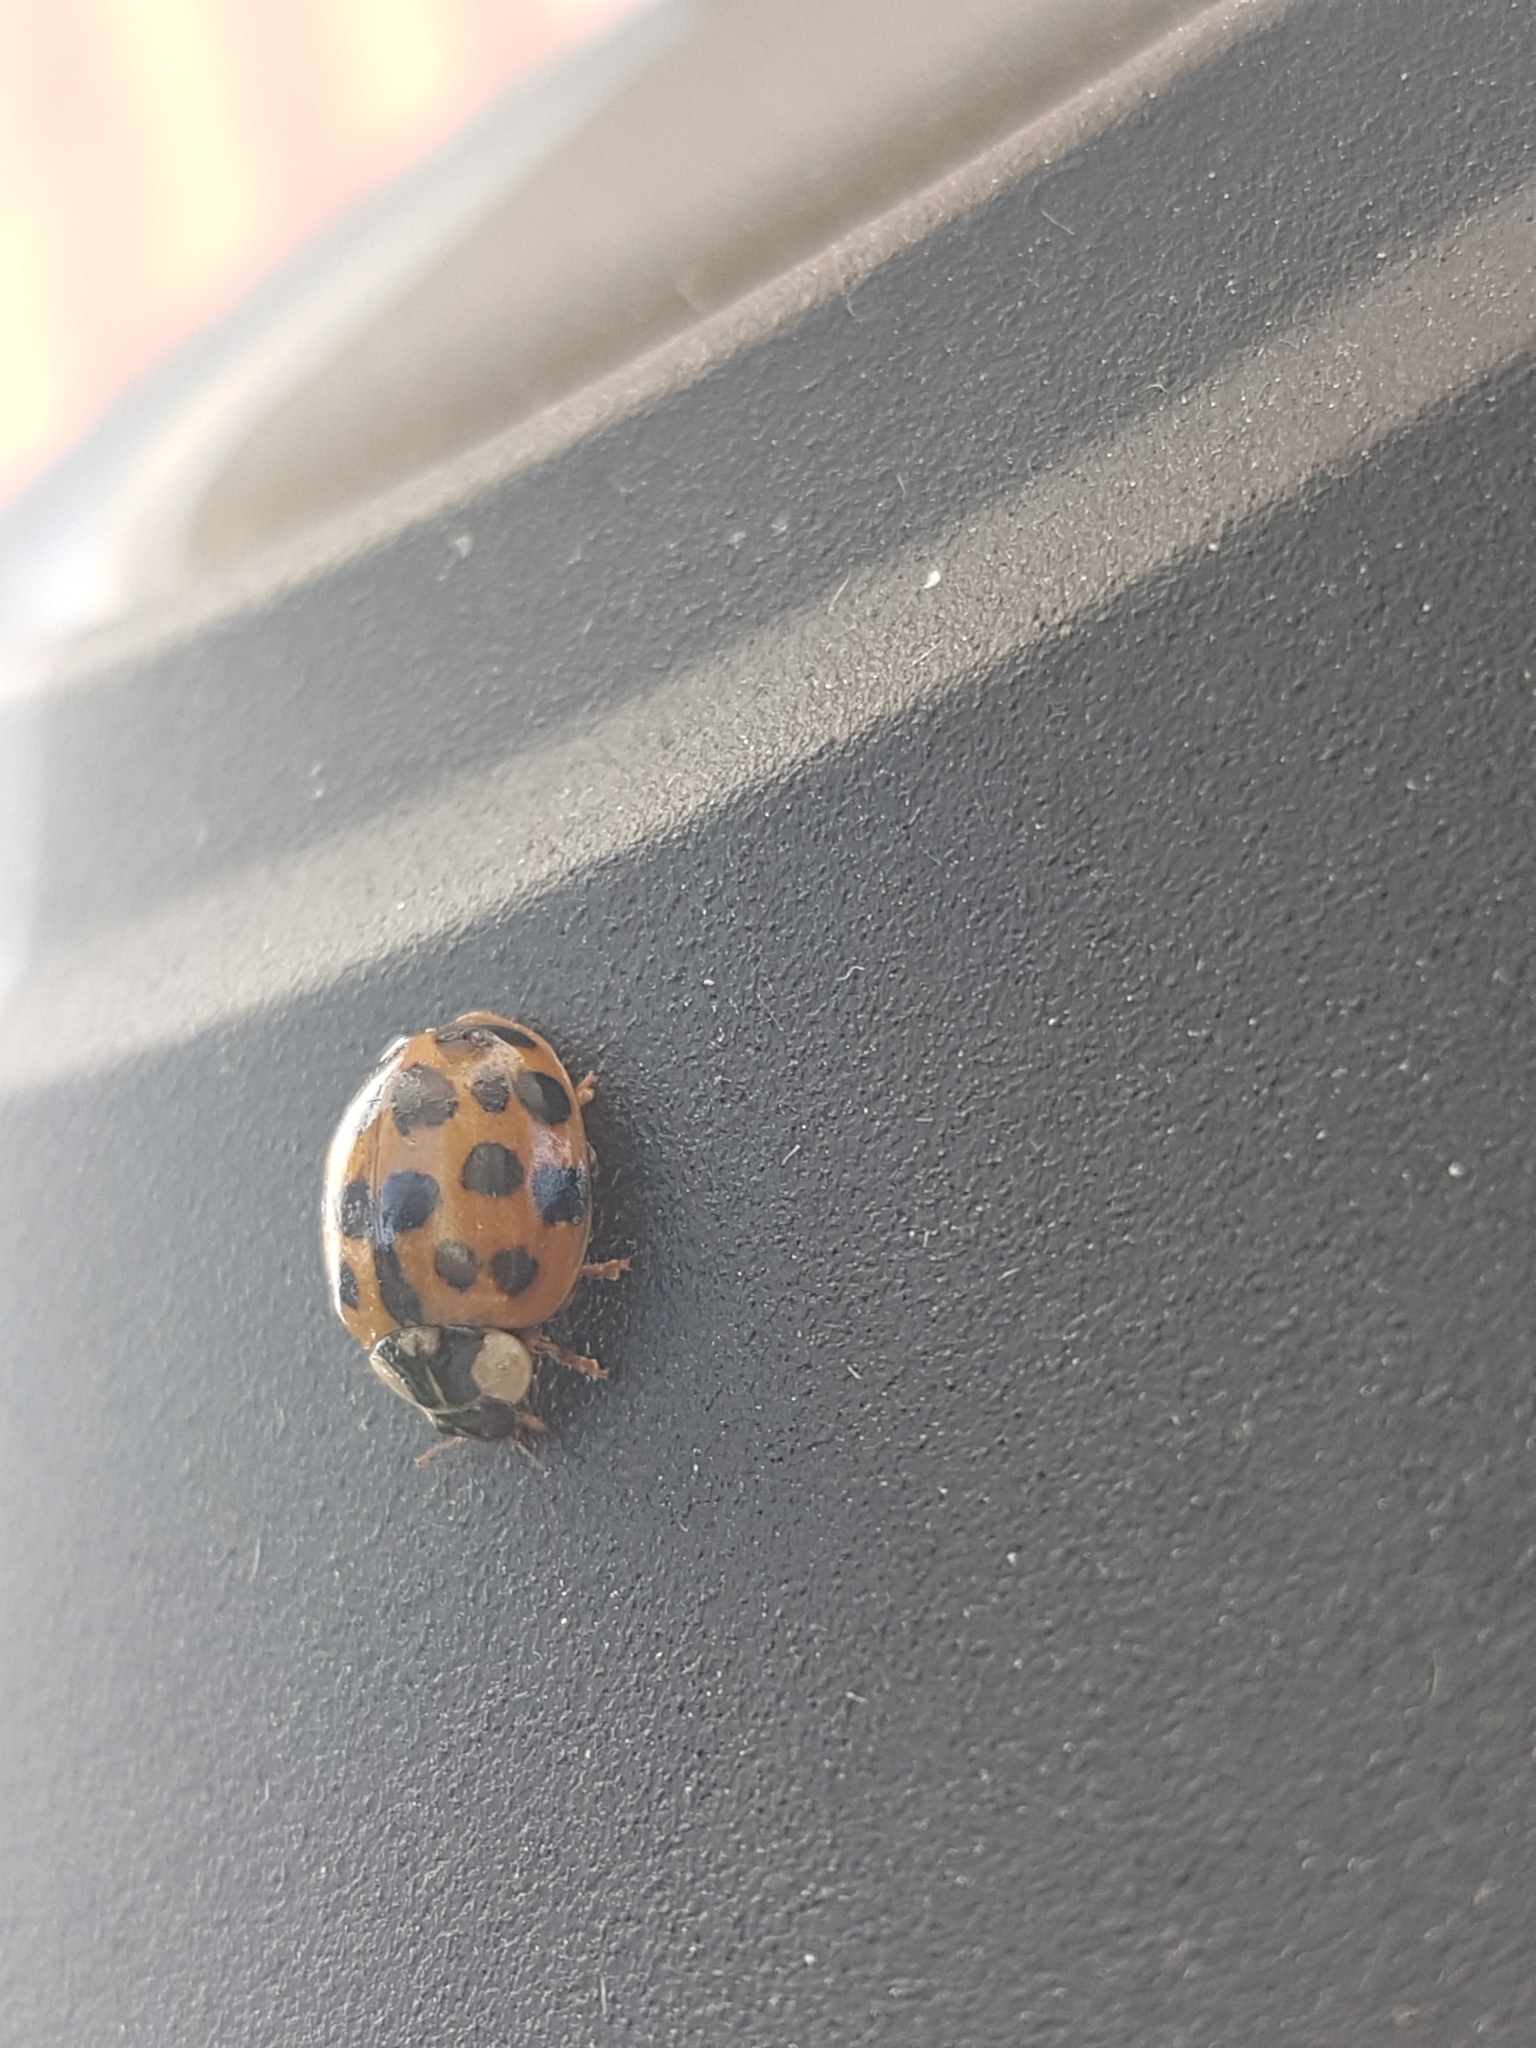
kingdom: Animalia
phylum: Arthropoda
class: Insecta
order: Coleoptera
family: Coccinellidae
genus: Harmonia
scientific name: Harmonia axyridis
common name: Harlequin ladybird
